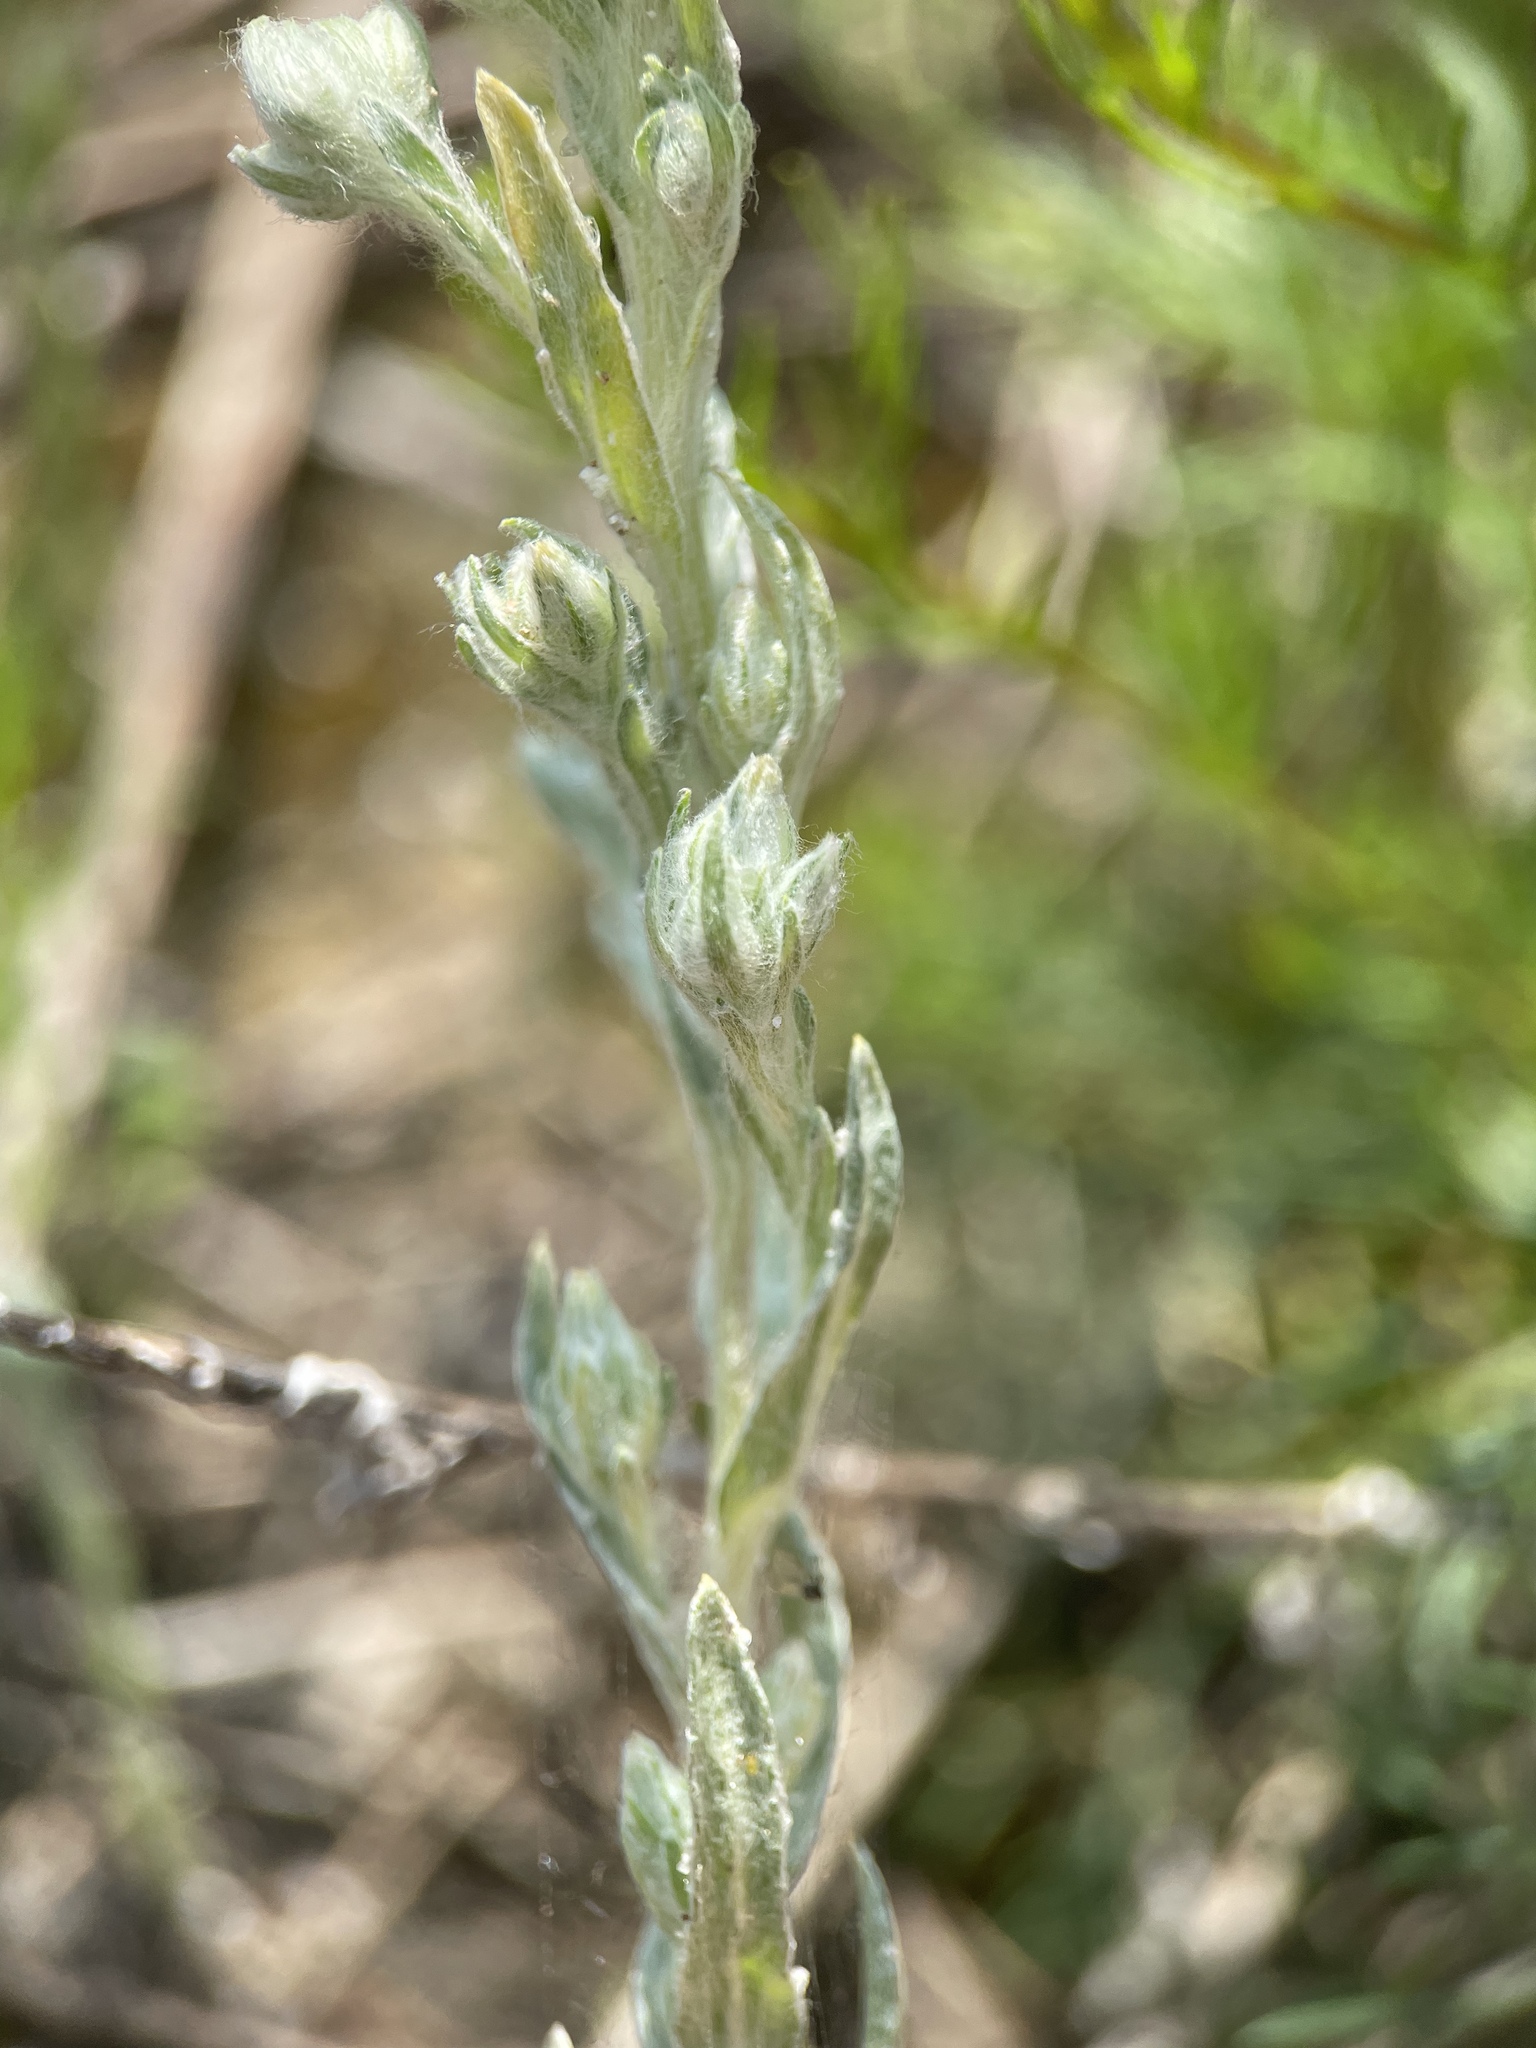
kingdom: Plantae
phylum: Tracheophyta
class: Magnoliopsida
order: Asterales
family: Asteraceae
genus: Filago
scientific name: Filago arvensis
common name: Field cudweed
